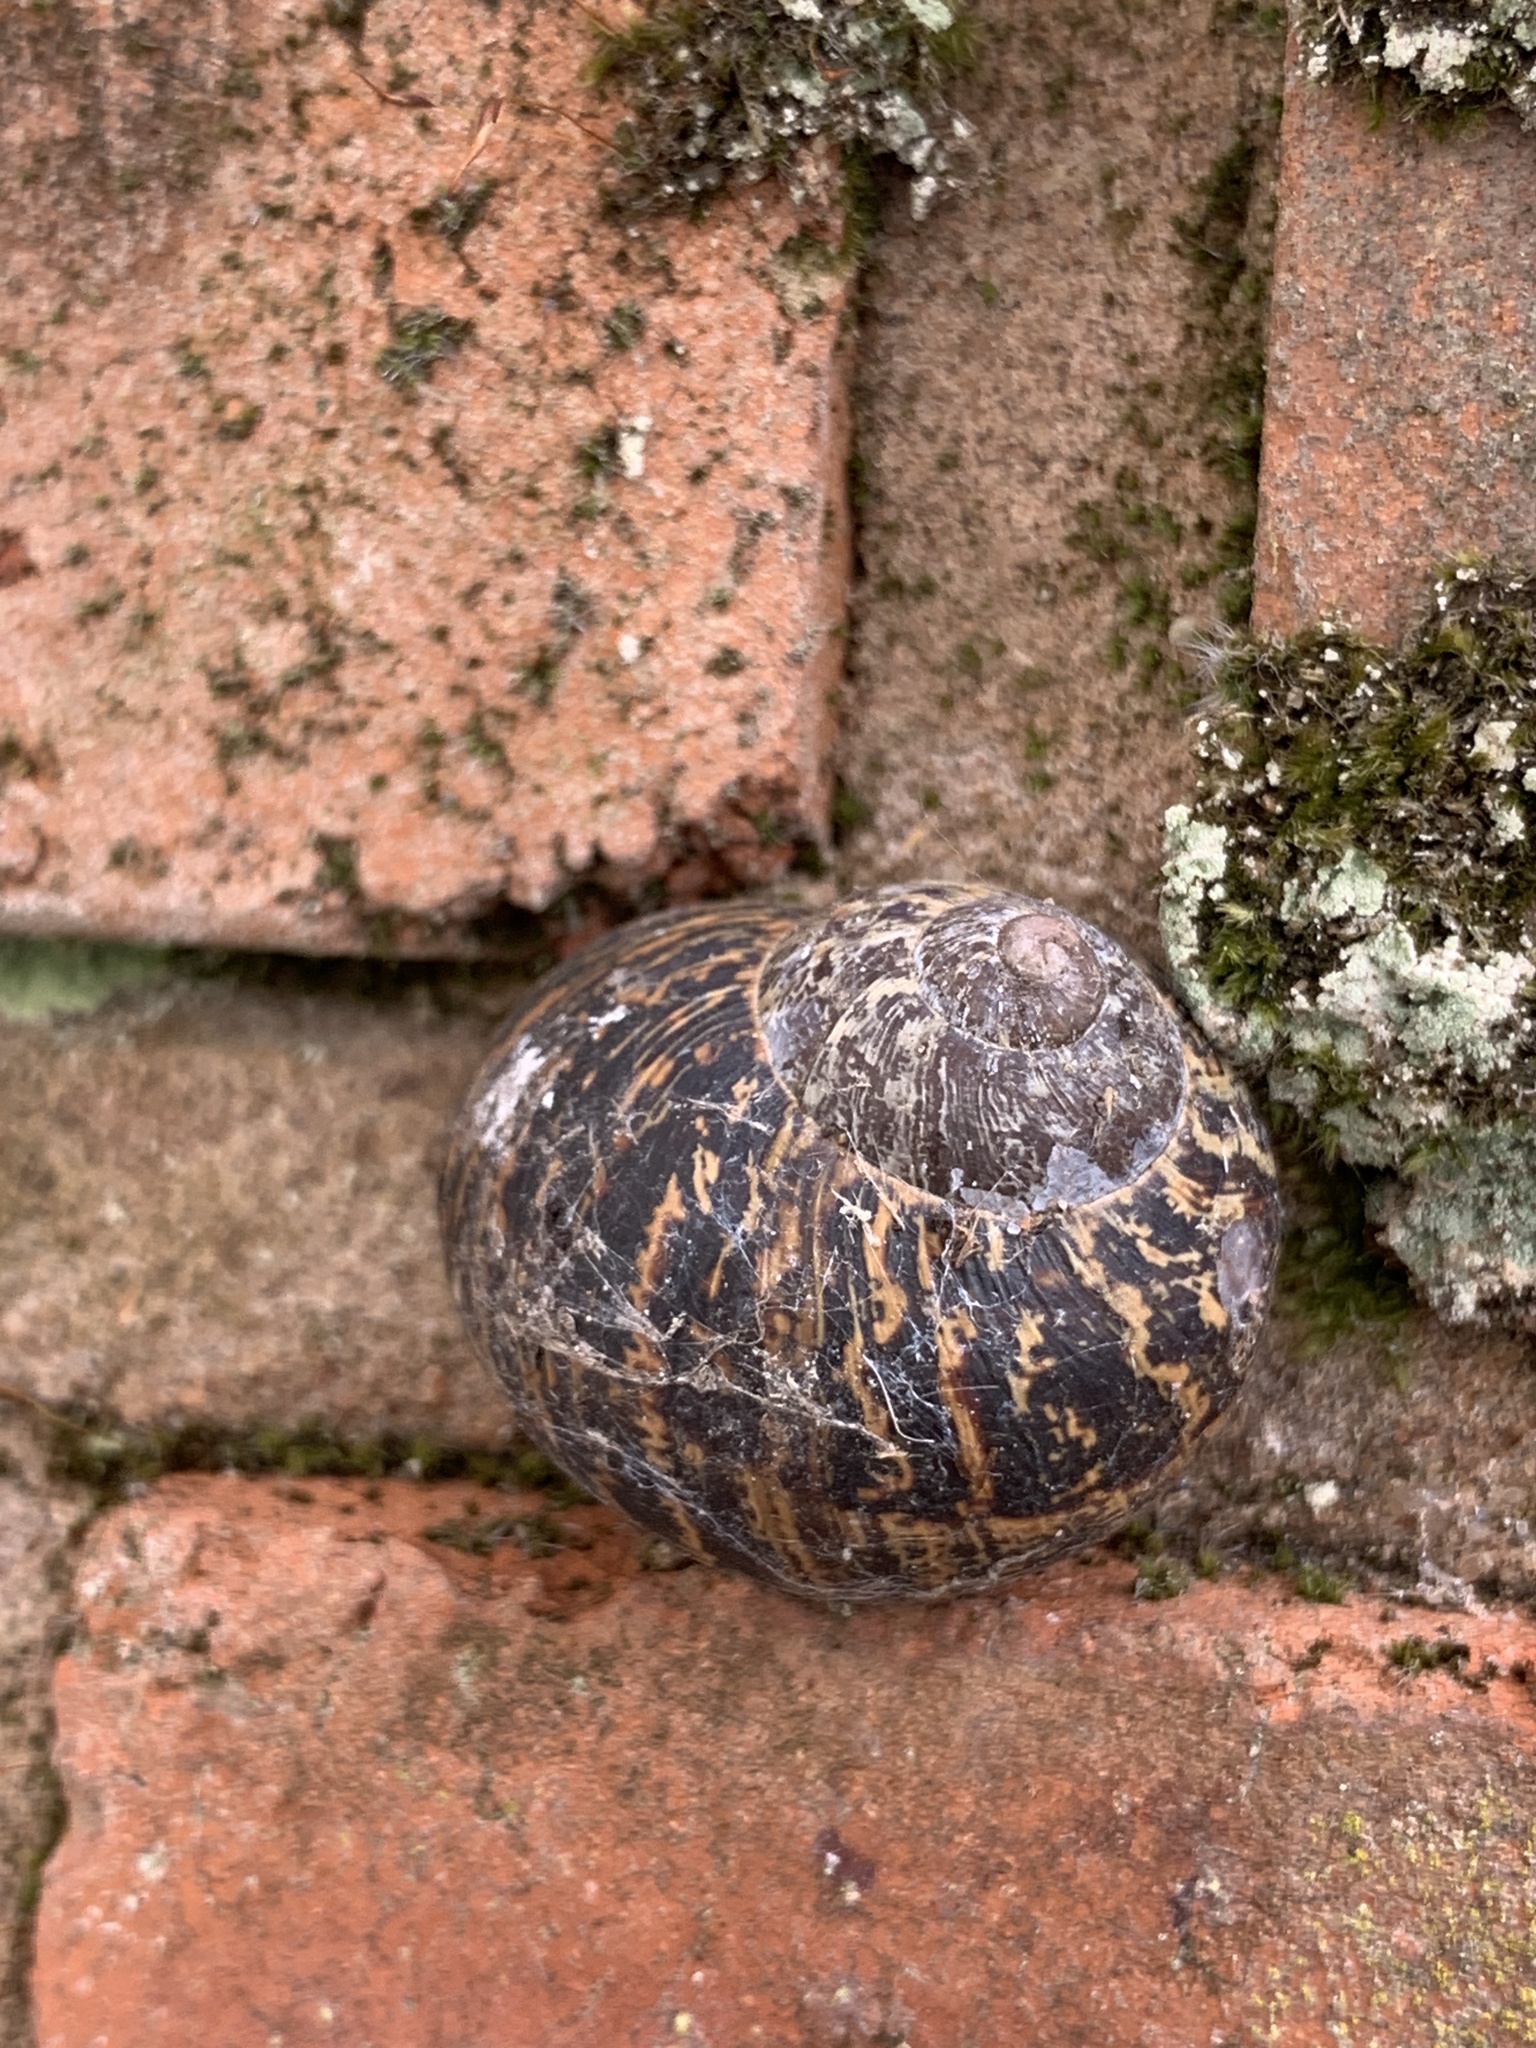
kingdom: Animalia
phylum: Mollusca
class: Gastropoda
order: Stylommatophora
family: Helicidae
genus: Cornu
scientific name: Cornu aspersum
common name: Brown garden snail
